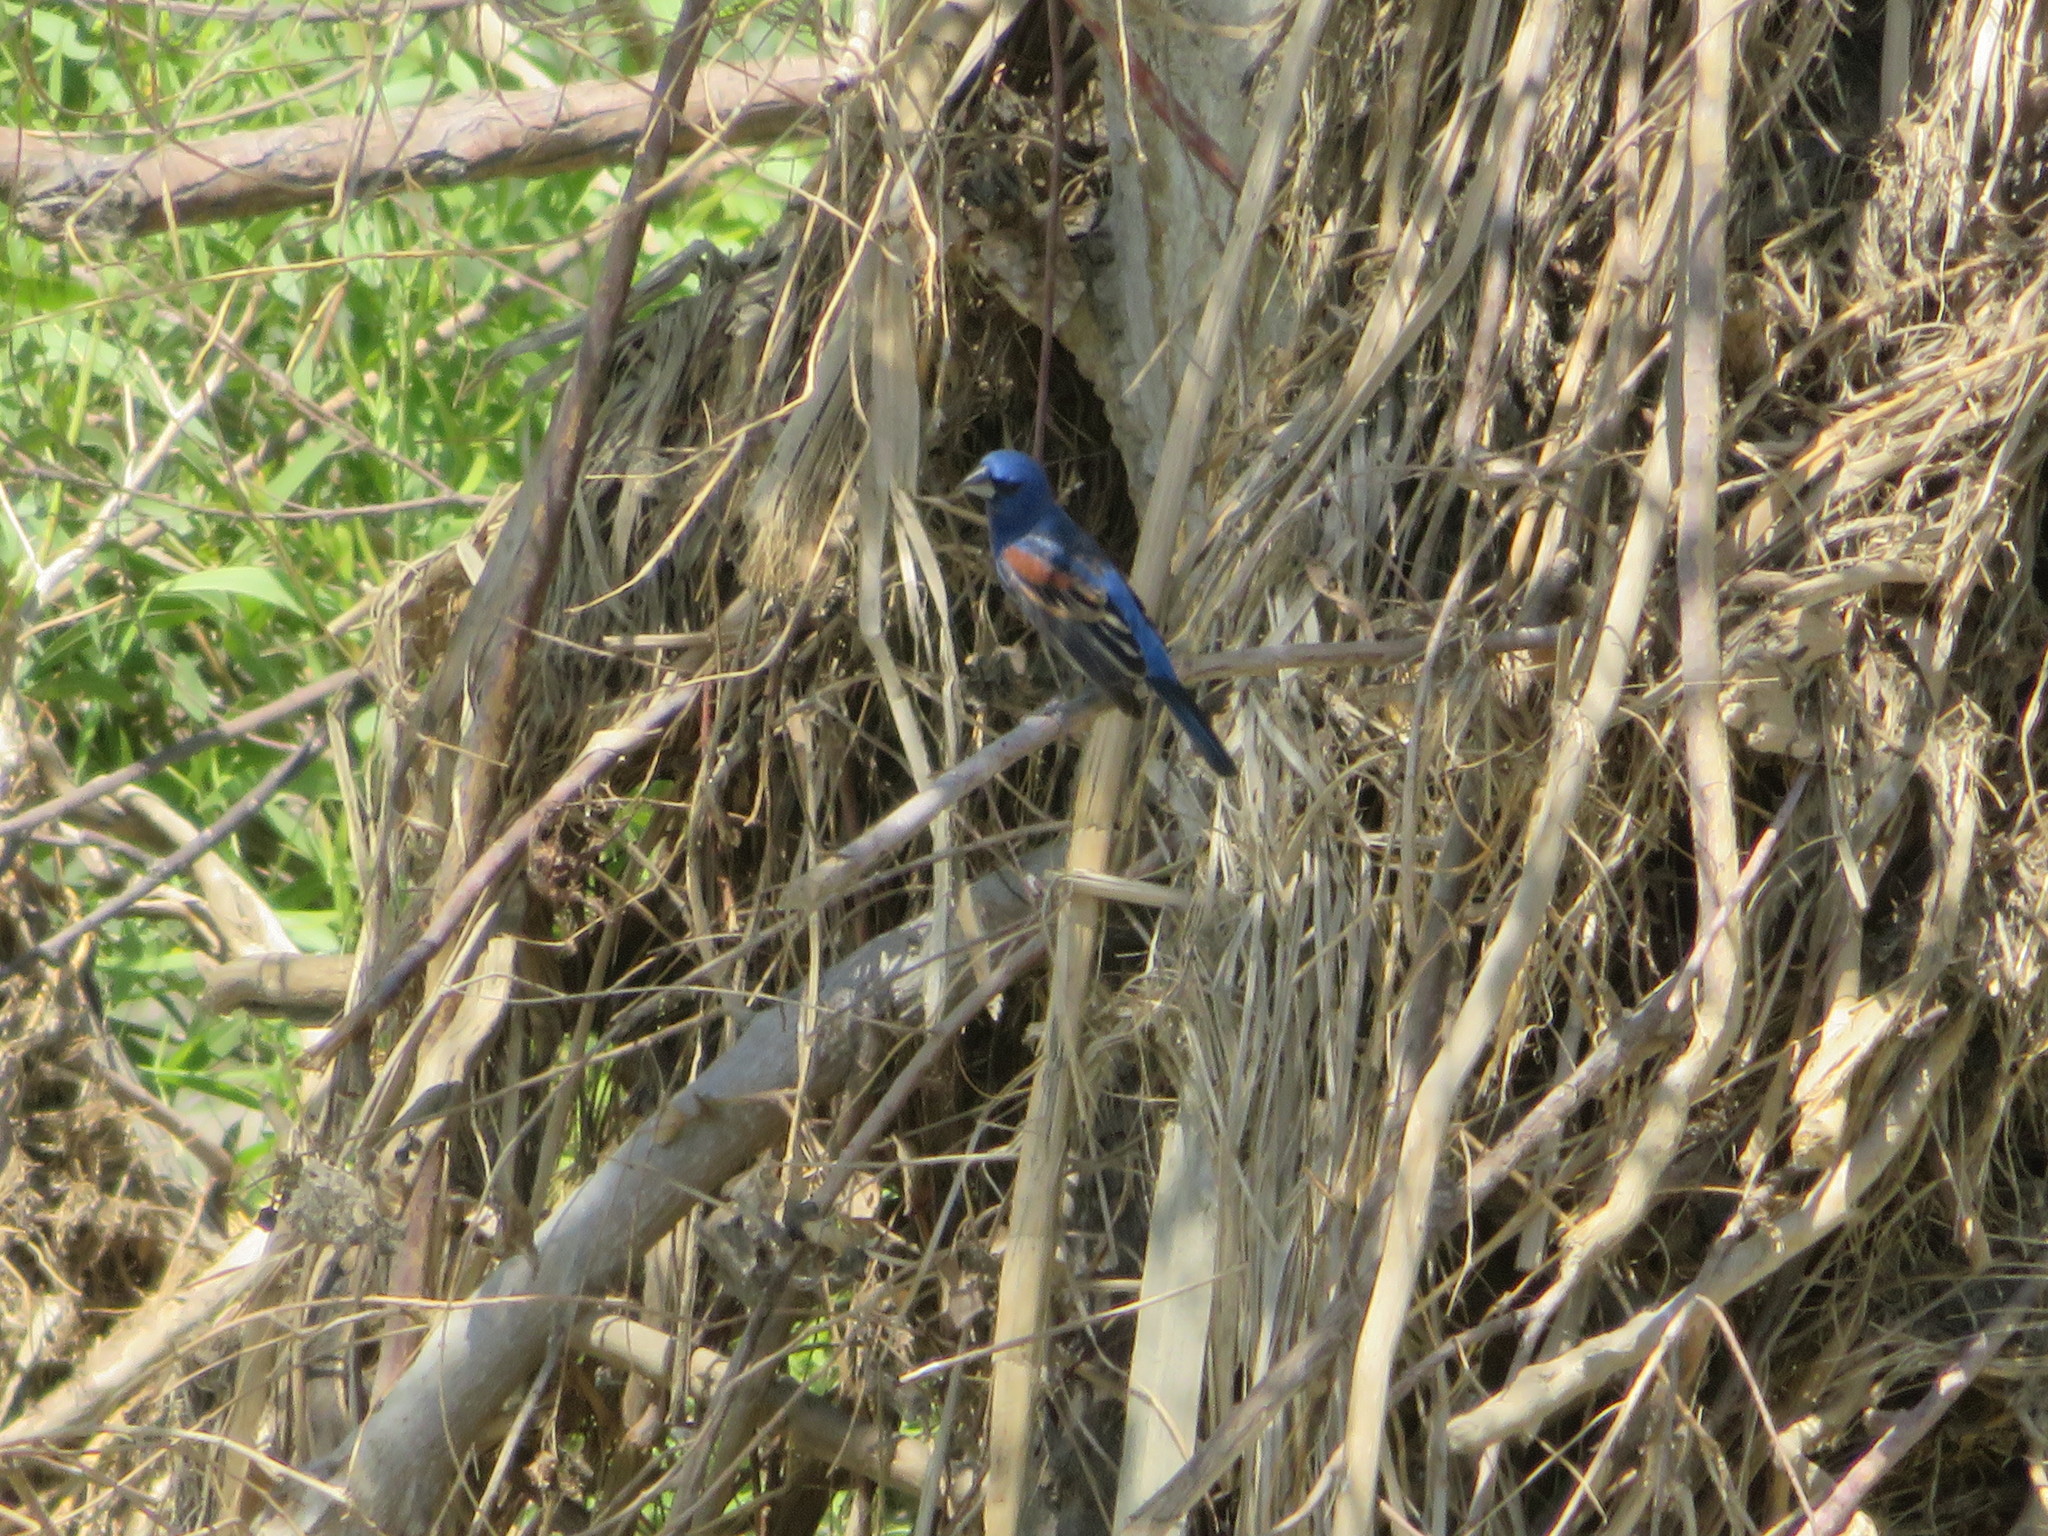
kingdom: Animalia
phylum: Chordata
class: Aves
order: Passeriformes
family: Cardinalidae
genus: Passerina
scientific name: Passerina caerulea
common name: Blue grosbeak
